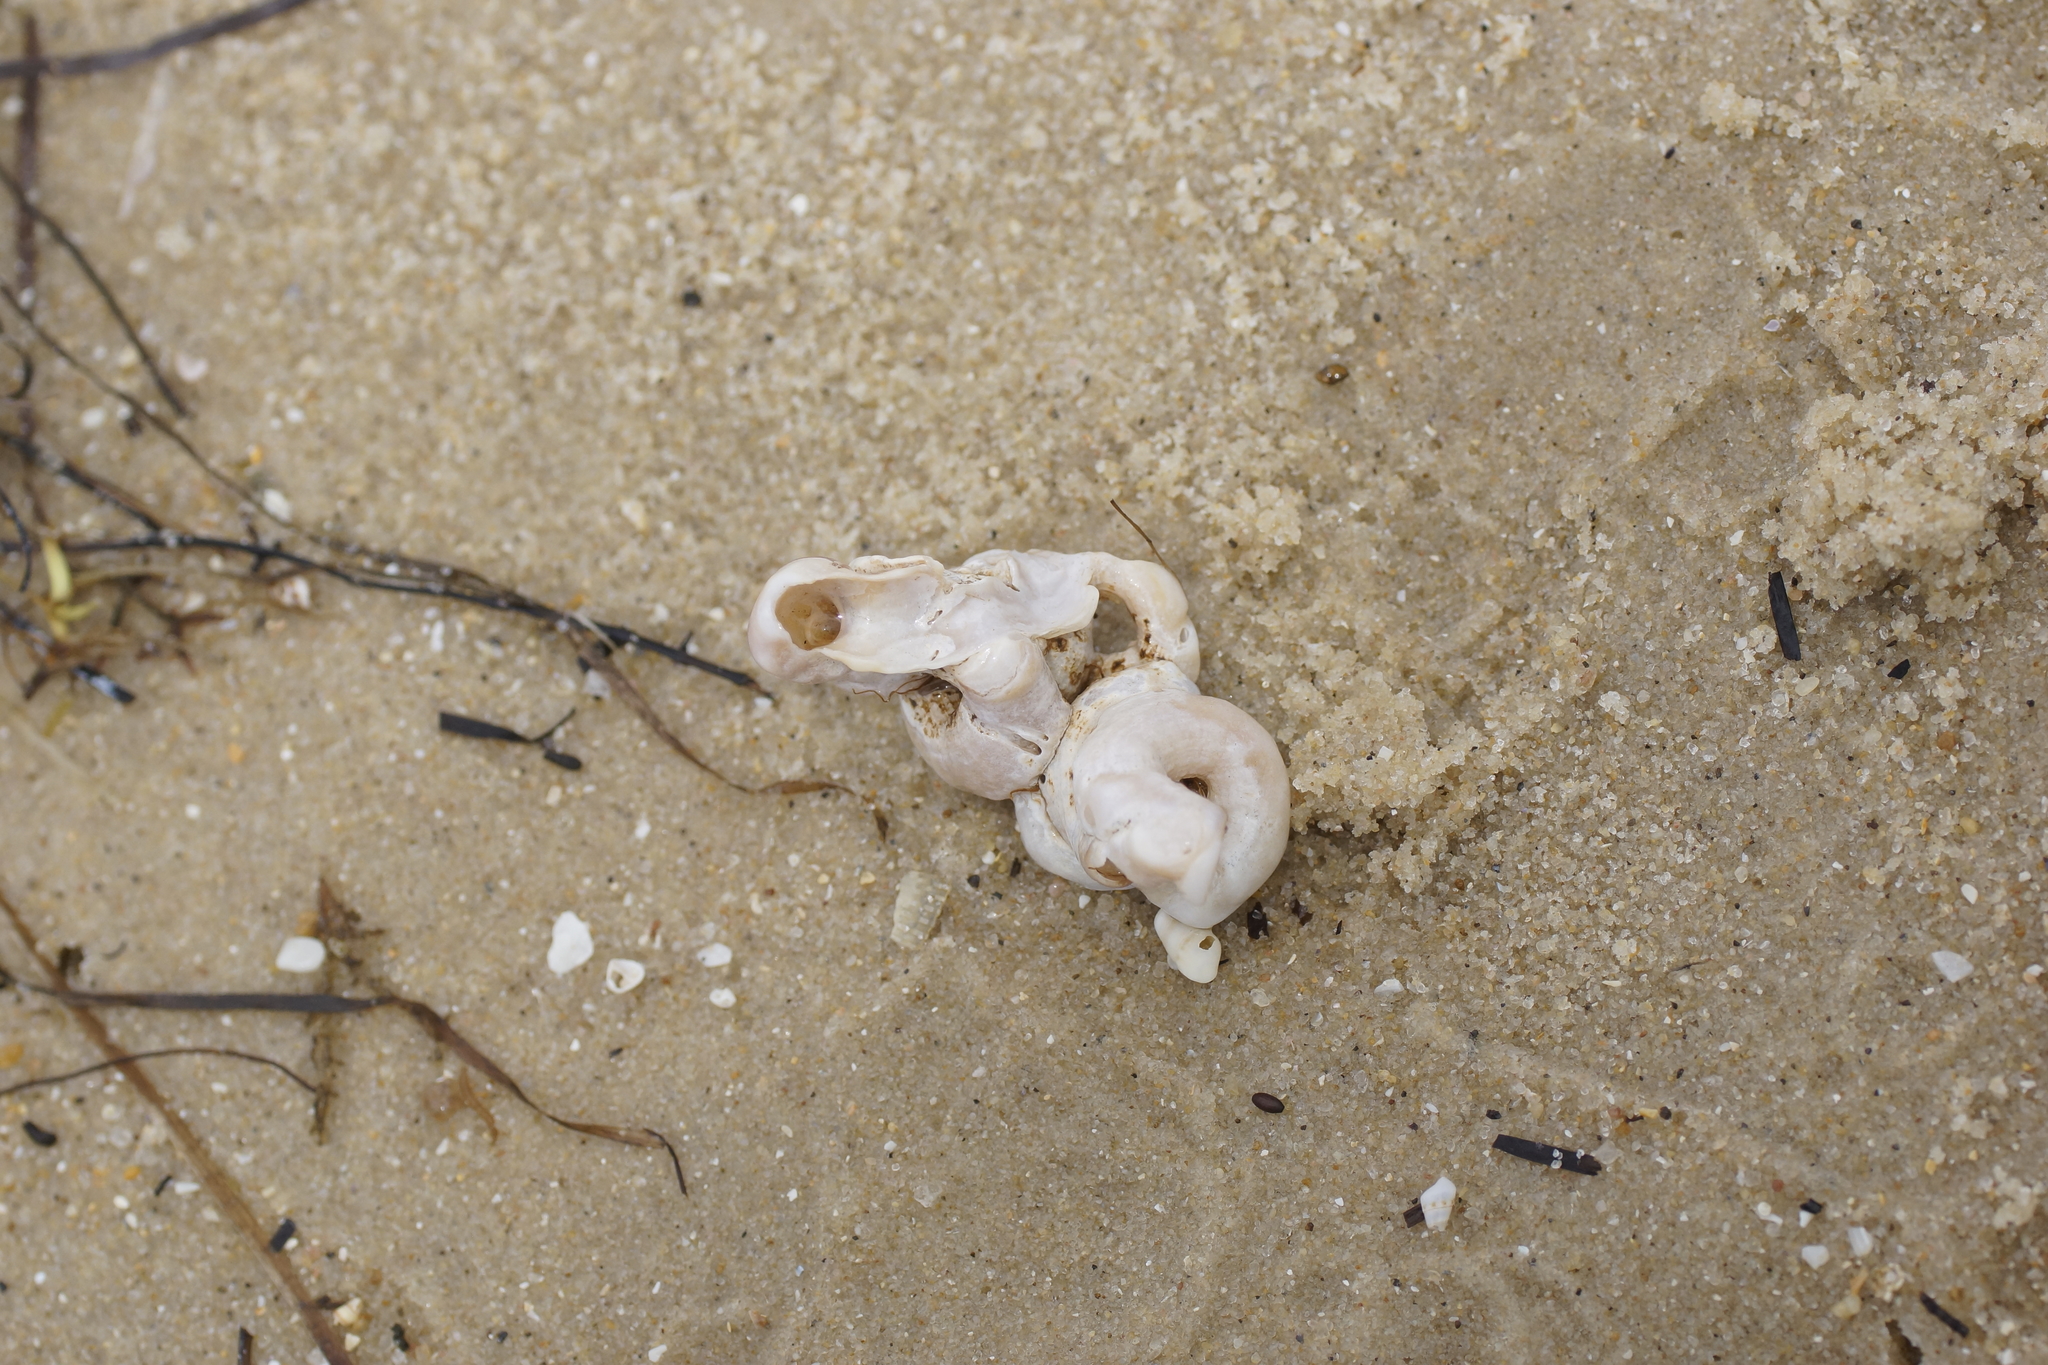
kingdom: Animalia
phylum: Mollusca
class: Gastropoda
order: Littorinimorpha
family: Vermetidae
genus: Thylacodes
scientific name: Thylacodes sipho
